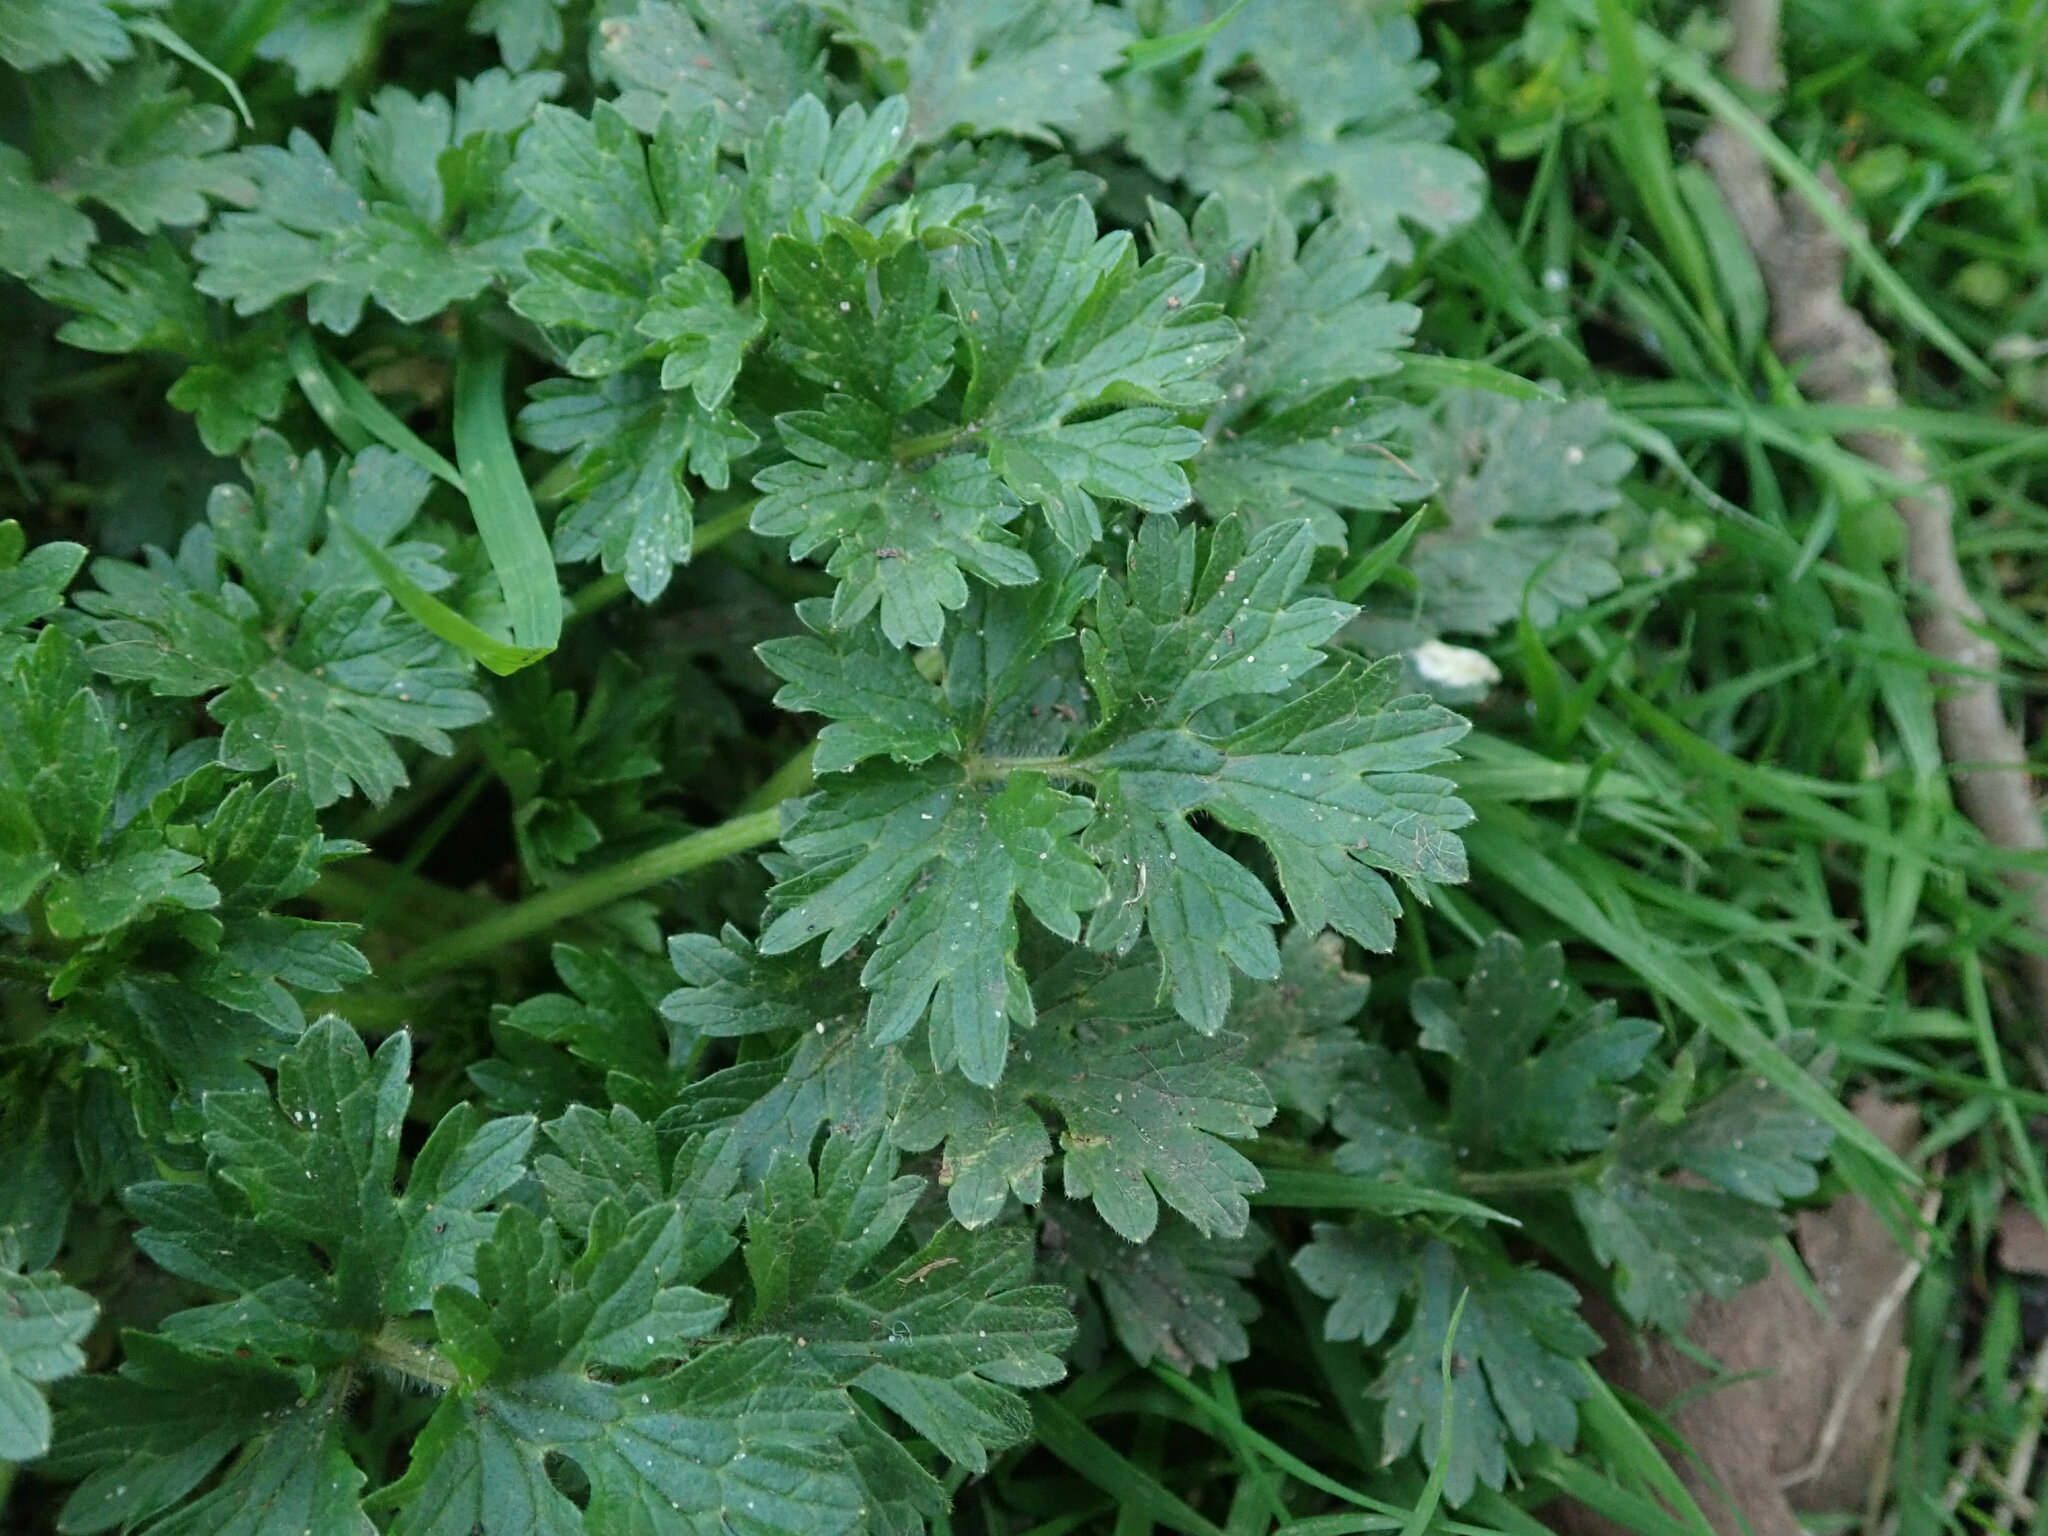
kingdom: Plantae
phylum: Tracheophyta
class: Magnoliopsida
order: Ranunculales
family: Ranunculaceae
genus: Ranunculus
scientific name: Ranunculus bulbosus
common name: Bulbous buttercup
